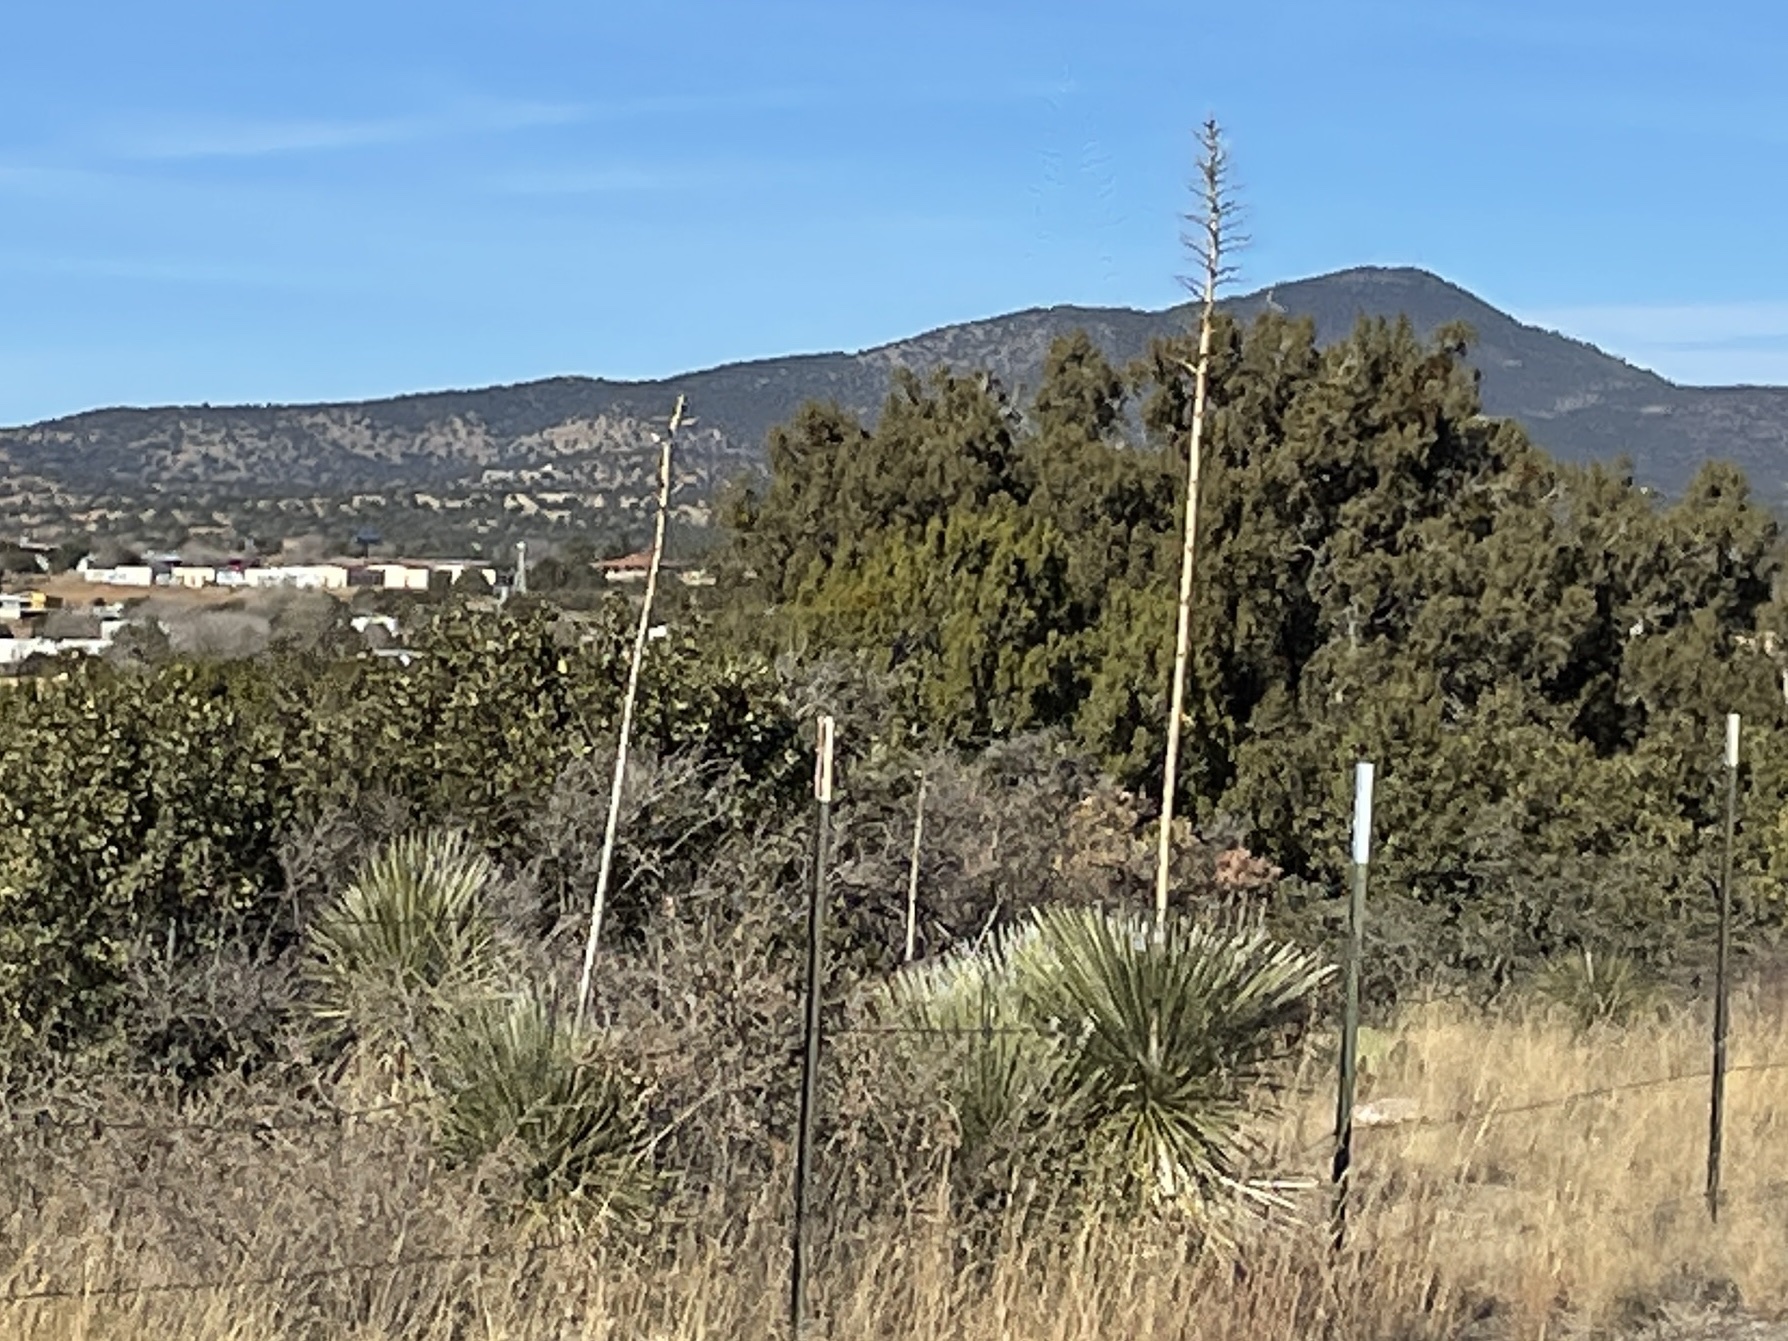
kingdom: Plantae
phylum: Tracheophyta
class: Liliopsida
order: Asparagales
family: Asparagaceae
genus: Yucca
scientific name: Yucca elata
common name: Palmella
